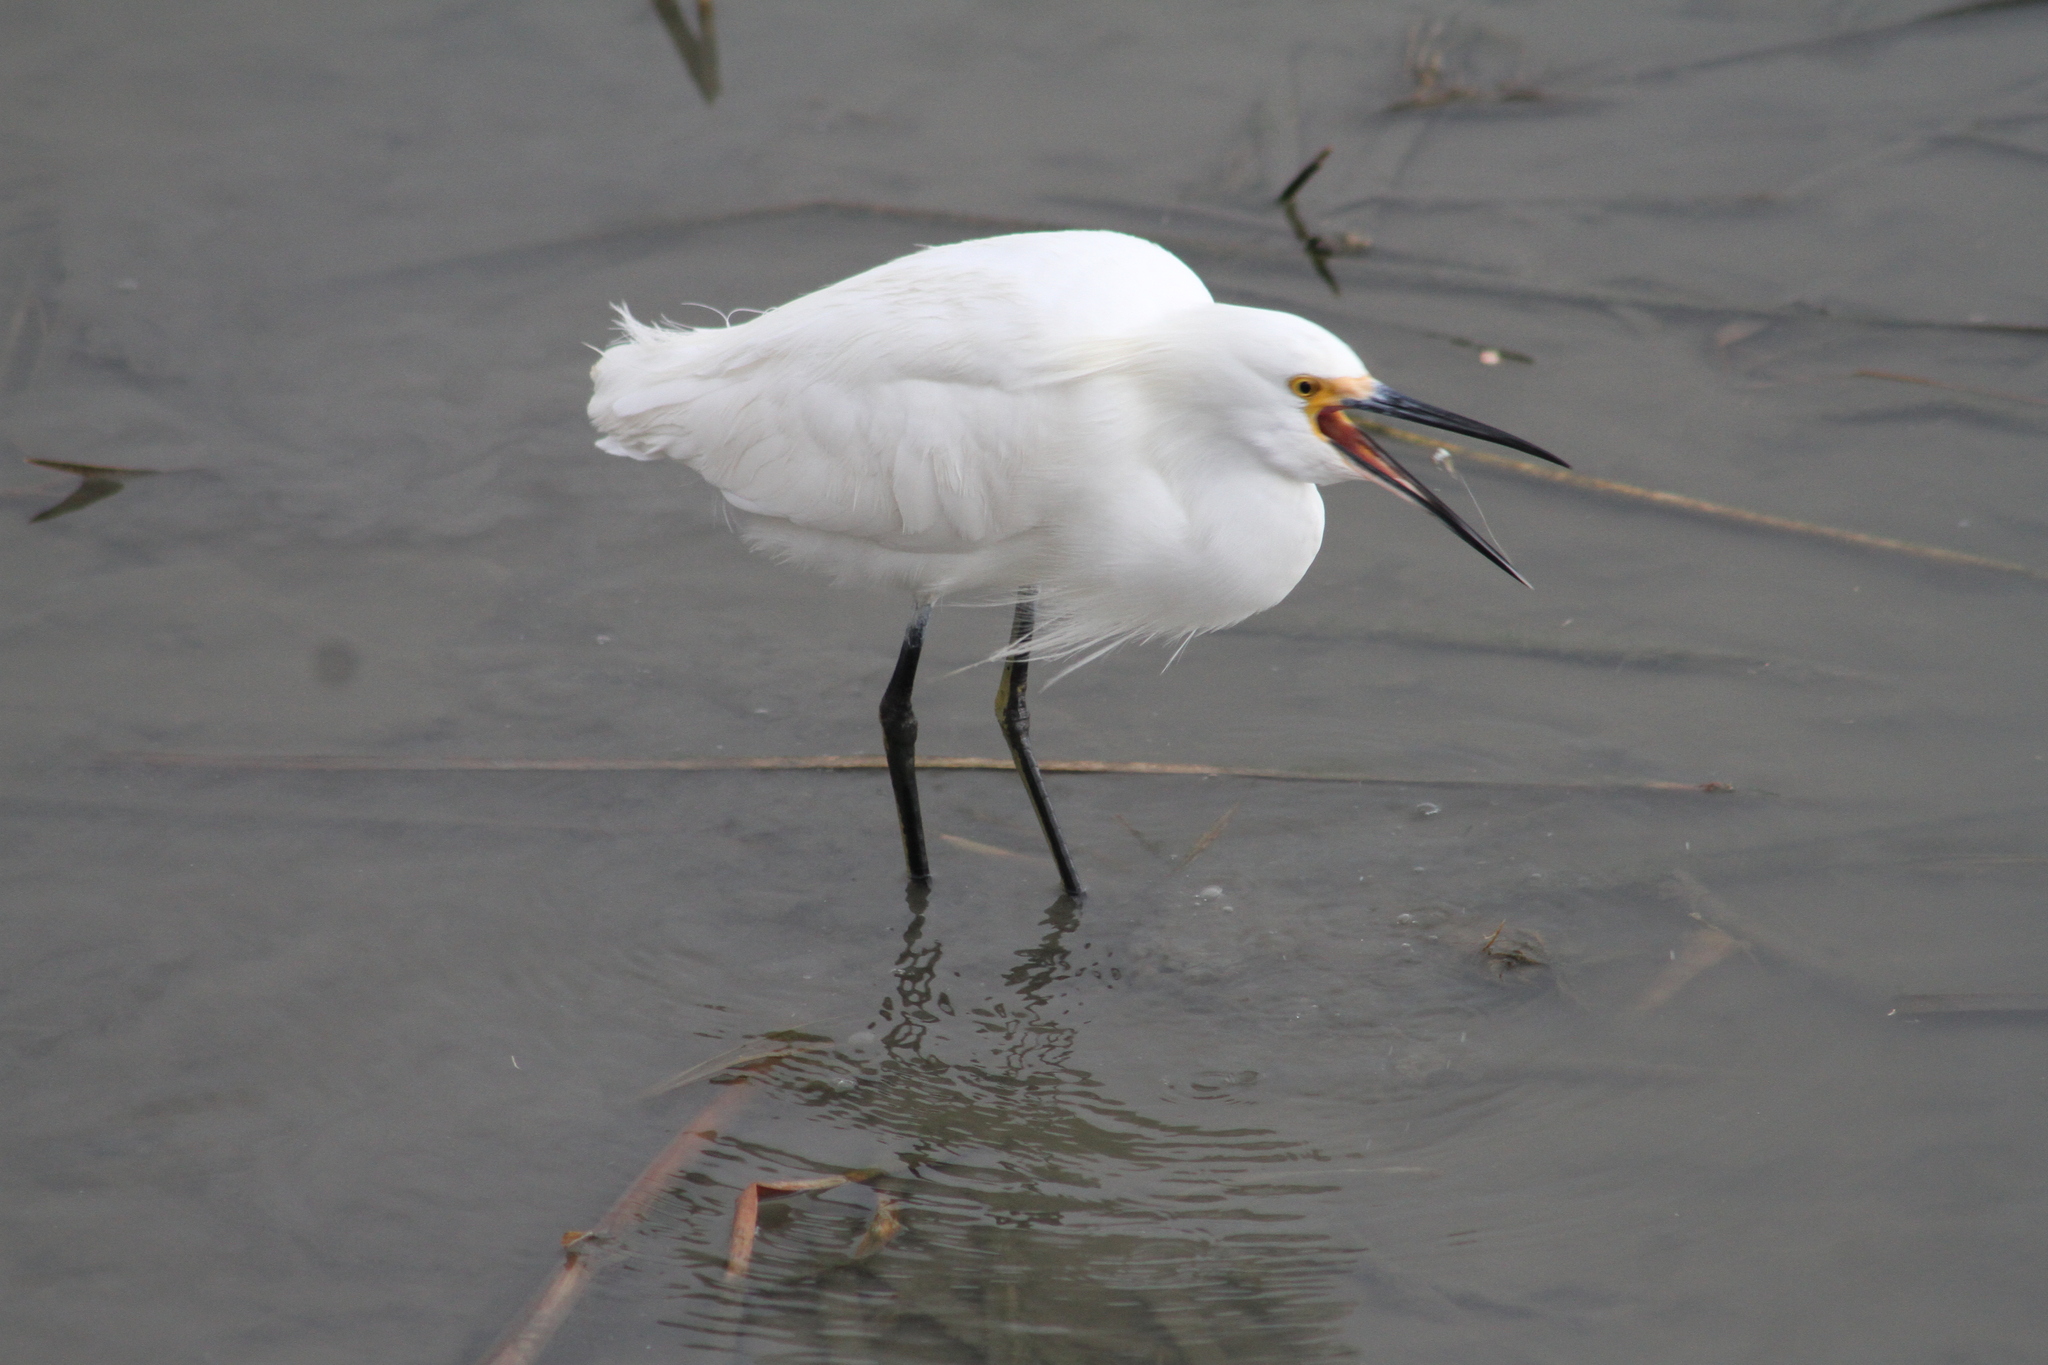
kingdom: Animalia
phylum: Chordata
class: Aves
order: Pelecaniformes
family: Ardeidae
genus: Egretta
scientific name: Egretta thula
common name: Snowy egret
